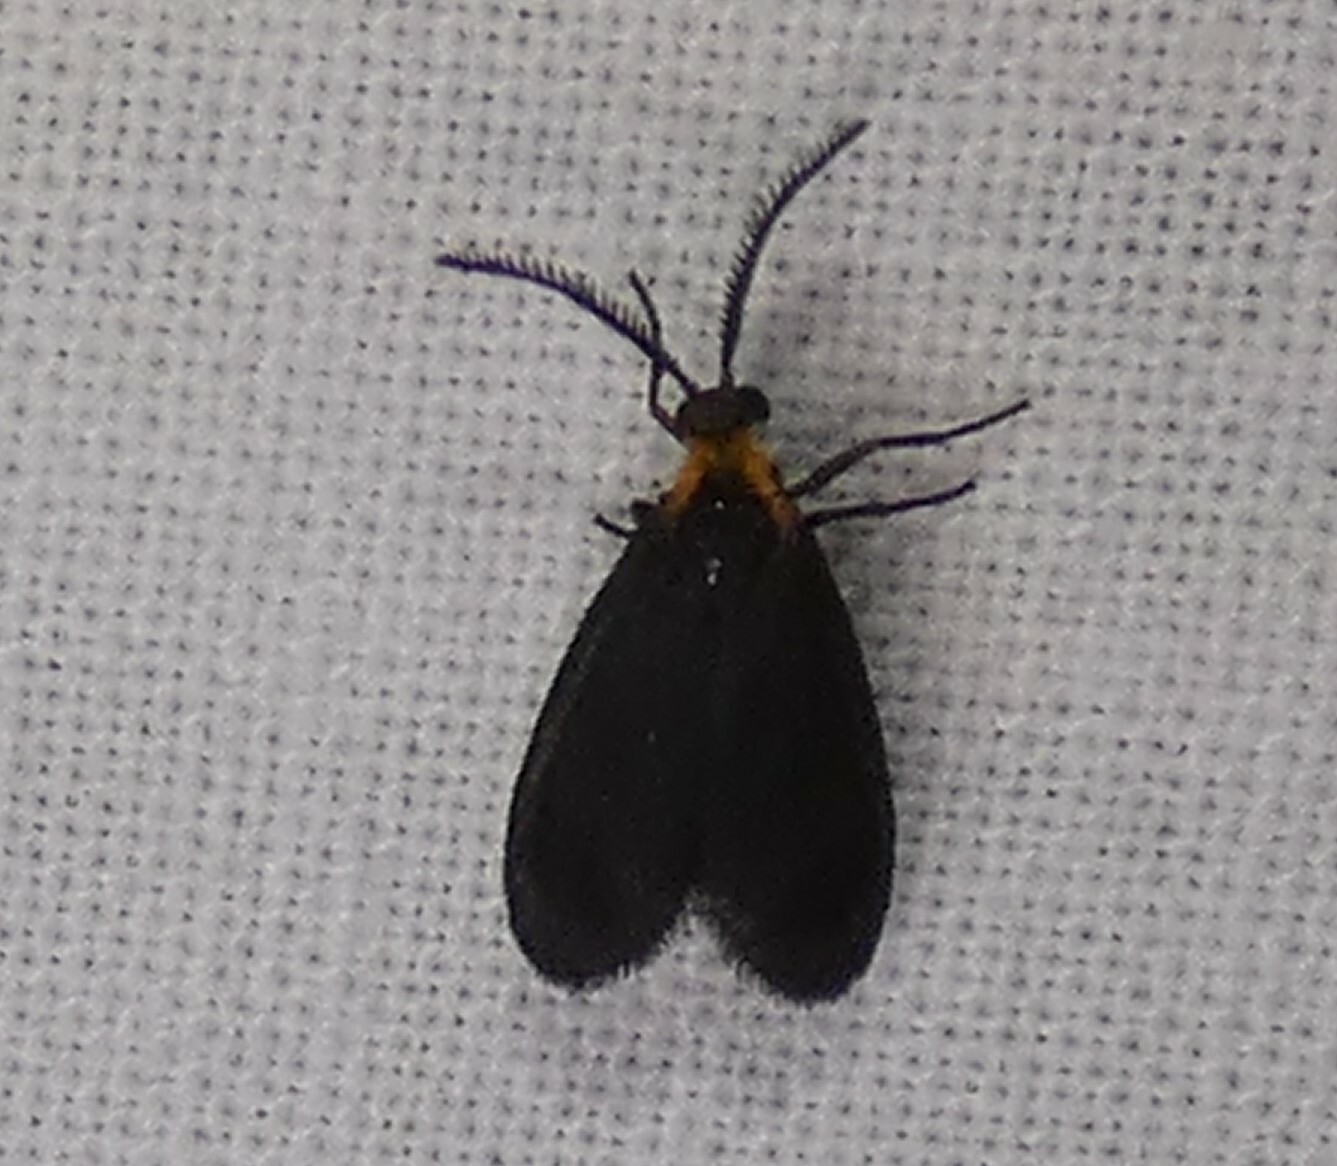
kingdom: Animalia
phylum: Arthropoda
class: Insecta
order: Lepidoptera
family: Zygaenidae
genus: Acoloithus
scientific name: Acoloithus falsarius
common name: Clemens' false skeletonizer
